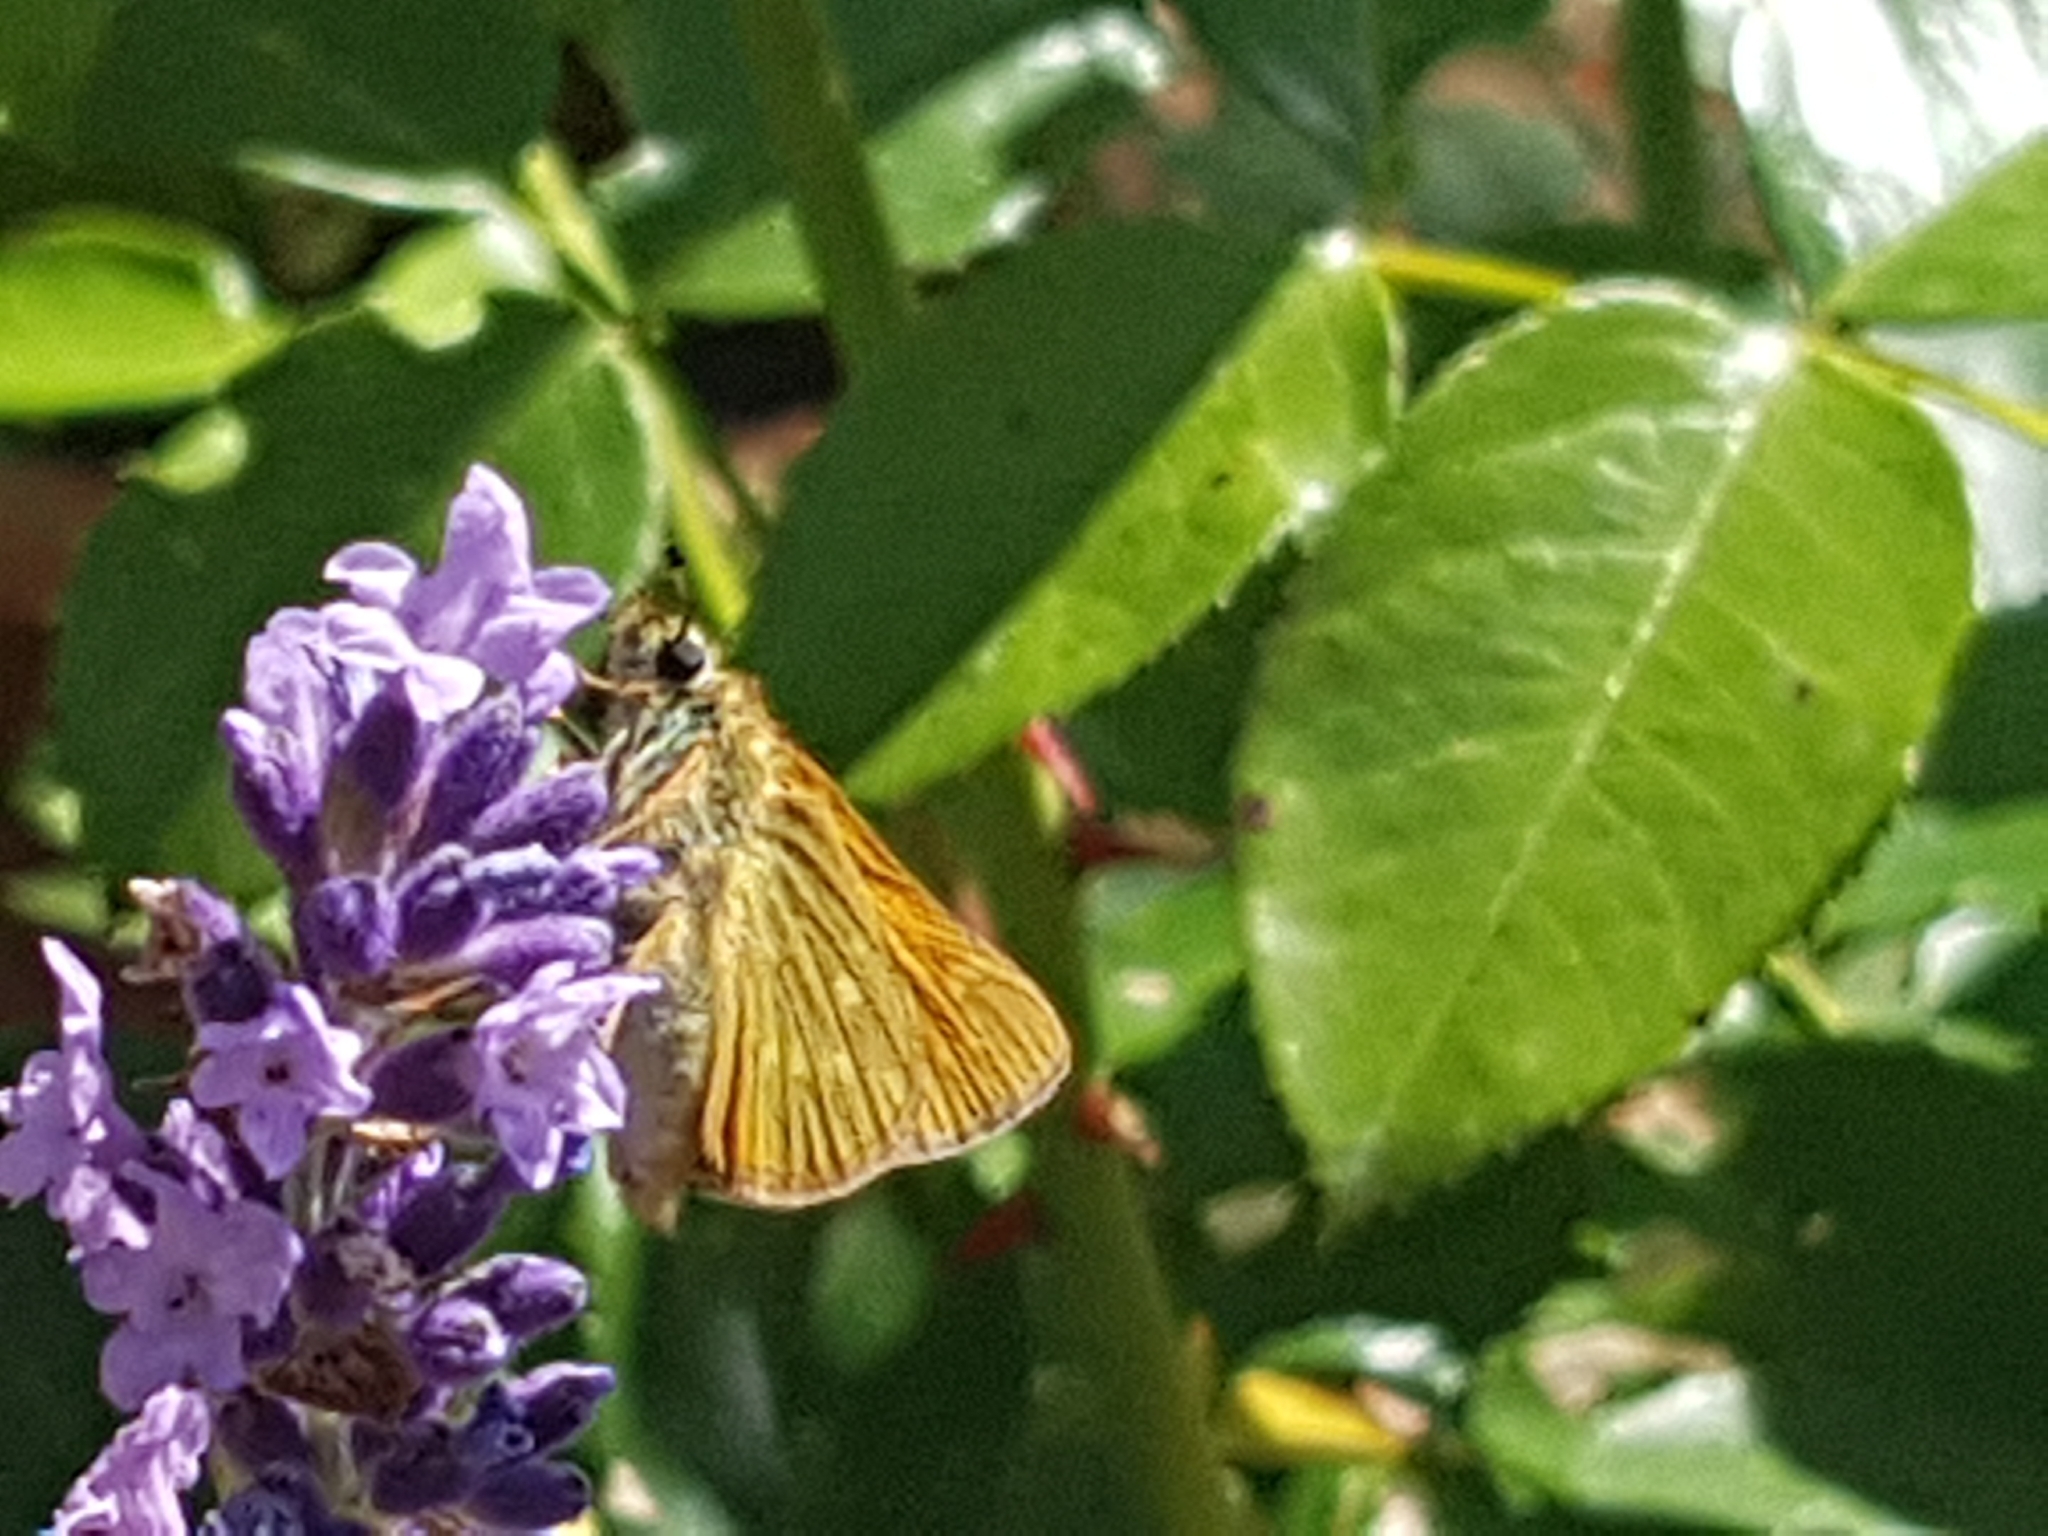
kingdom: Animalia
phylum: Arthropoda
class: Insecta
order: Lepidoptera
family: Hesperiidae
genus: Ochlodes
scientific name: Ochlodes venata
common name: Large skipper
